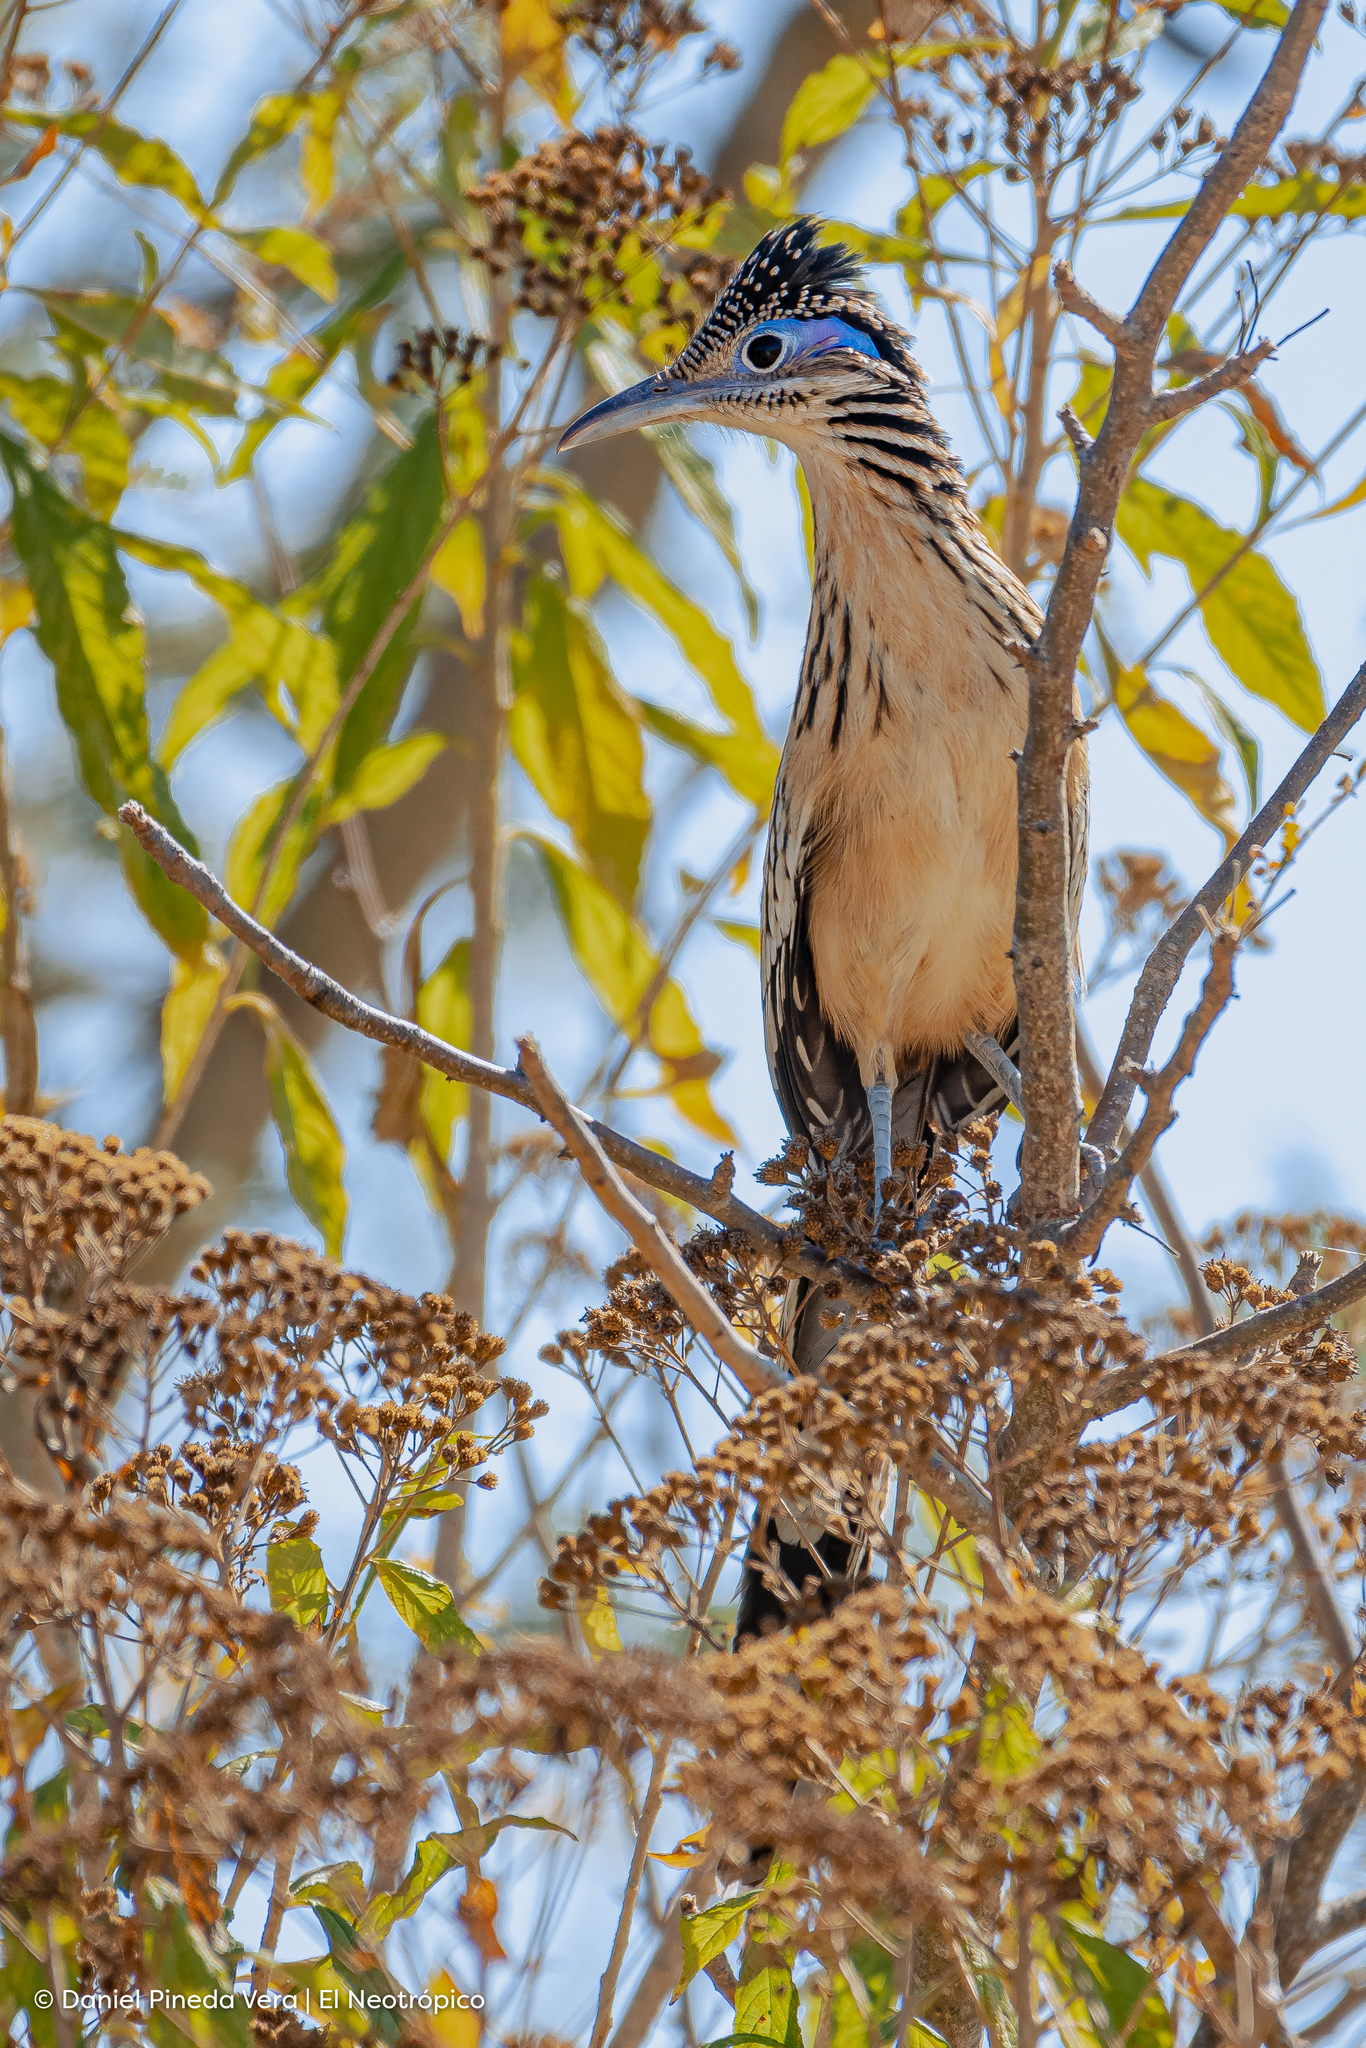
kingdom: Animalia
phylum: Chordata
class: Aves
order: Cuculiformes
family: Cuculidae
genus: Geococcyx
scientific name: Geococcyx velox
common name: Lesser roadrunner
